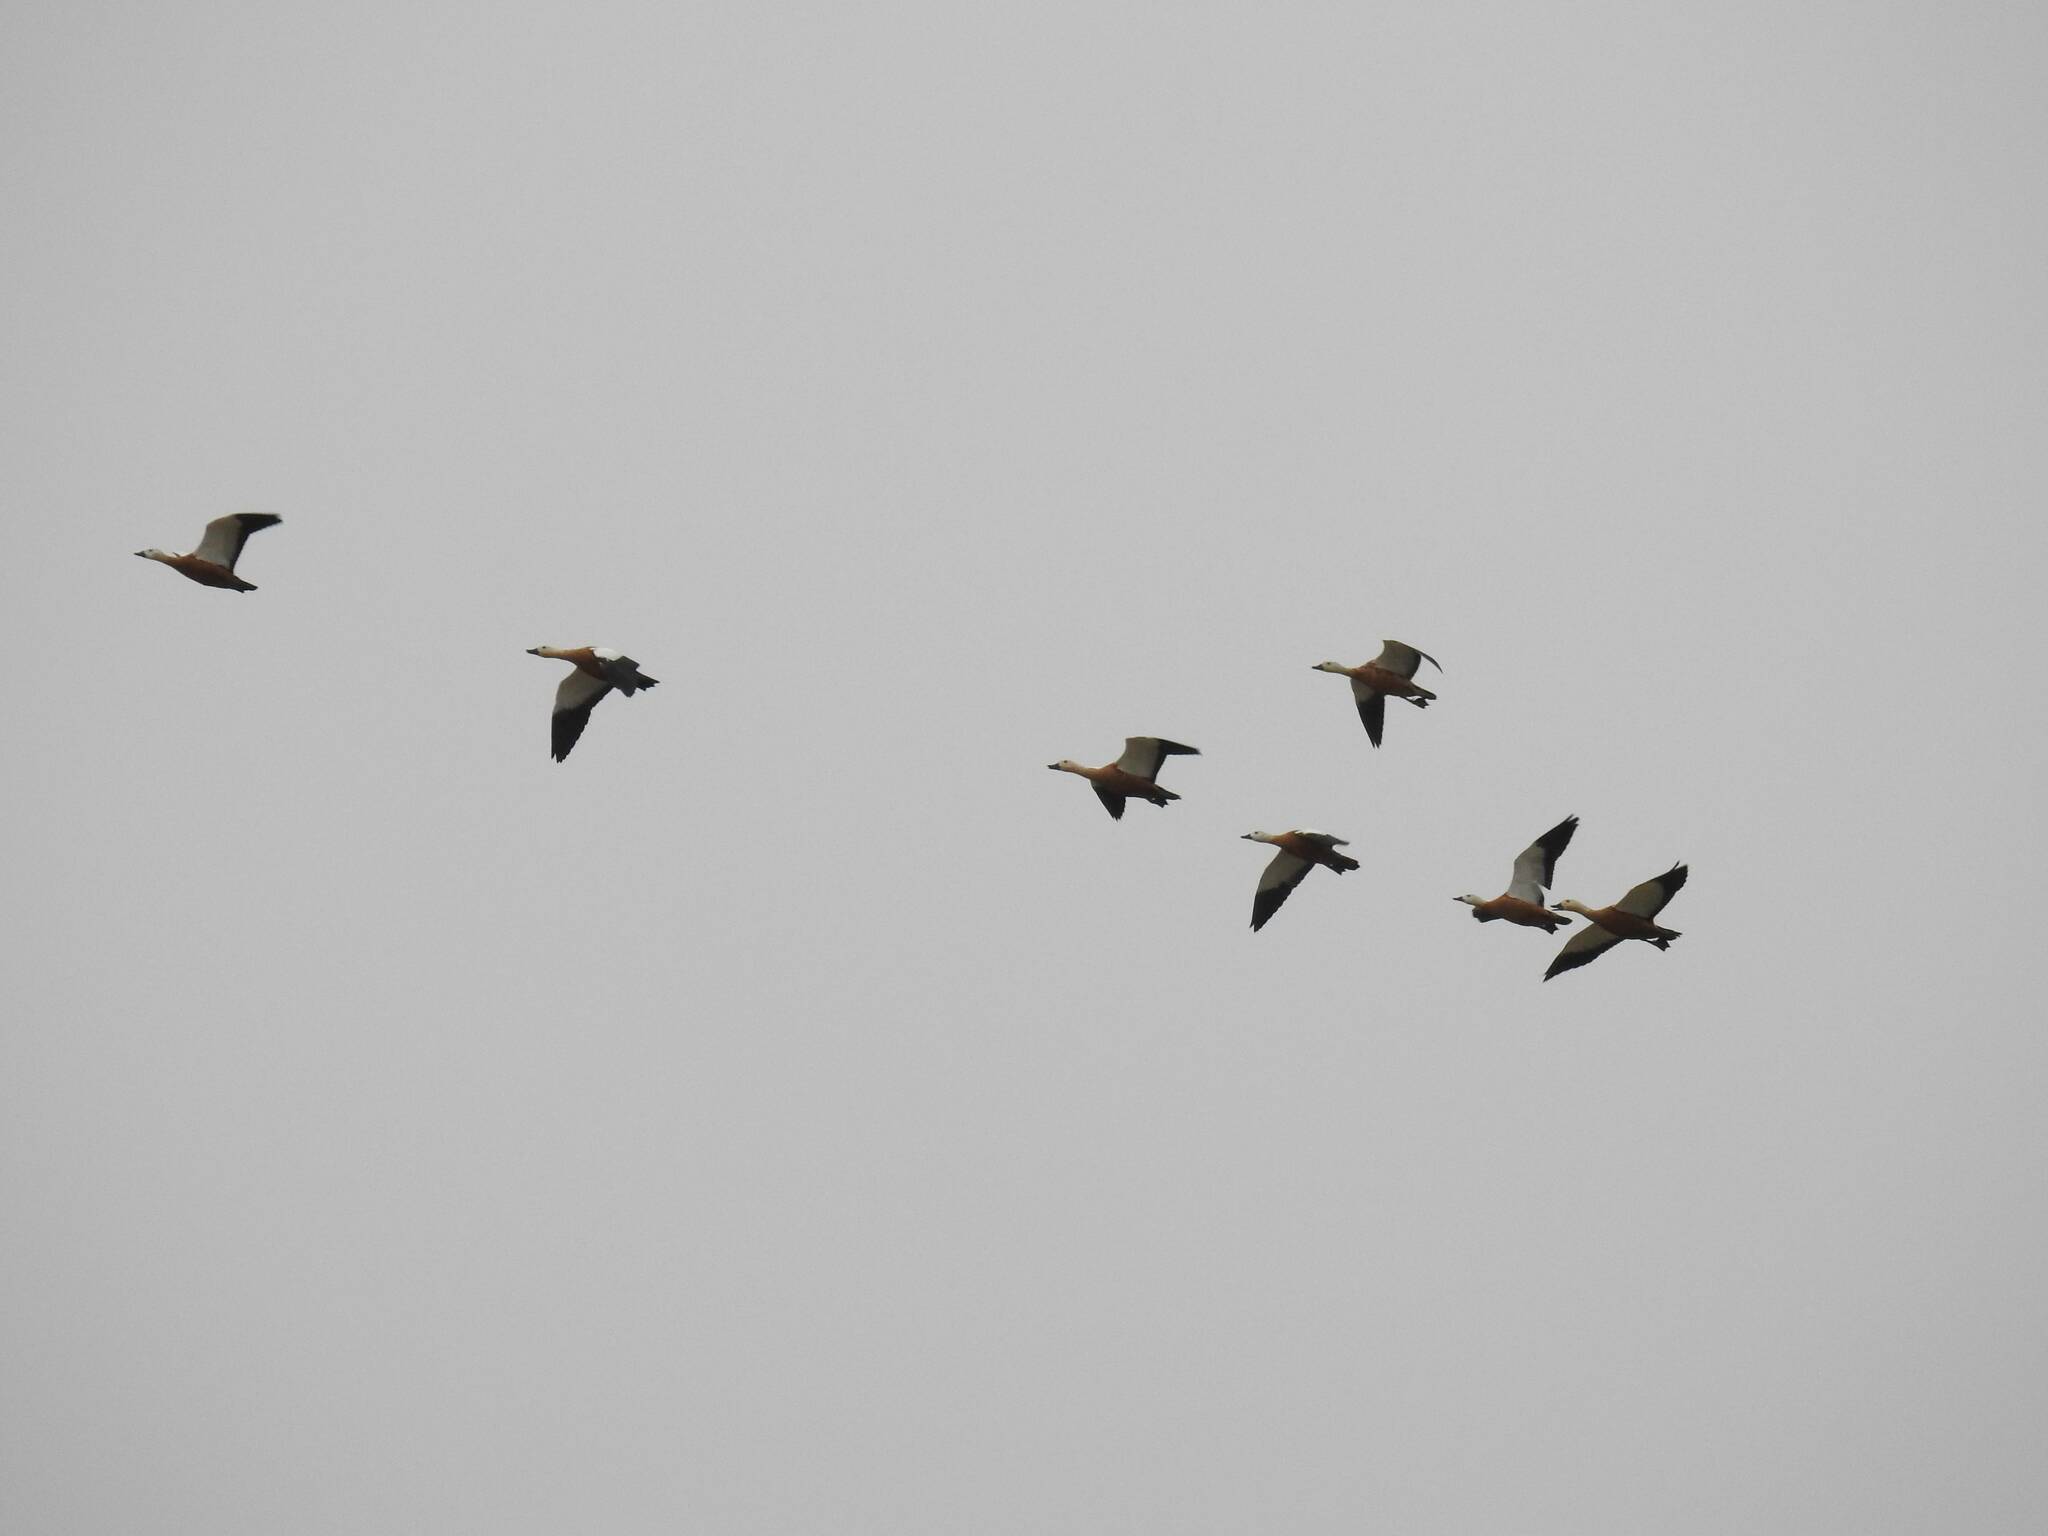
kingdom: Animalia
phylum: Chordata
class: Aves
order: Anseriformes
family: Anatidae
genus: Tadorna
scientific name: Tadorna ferruginea
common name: Ruddy shelduck
